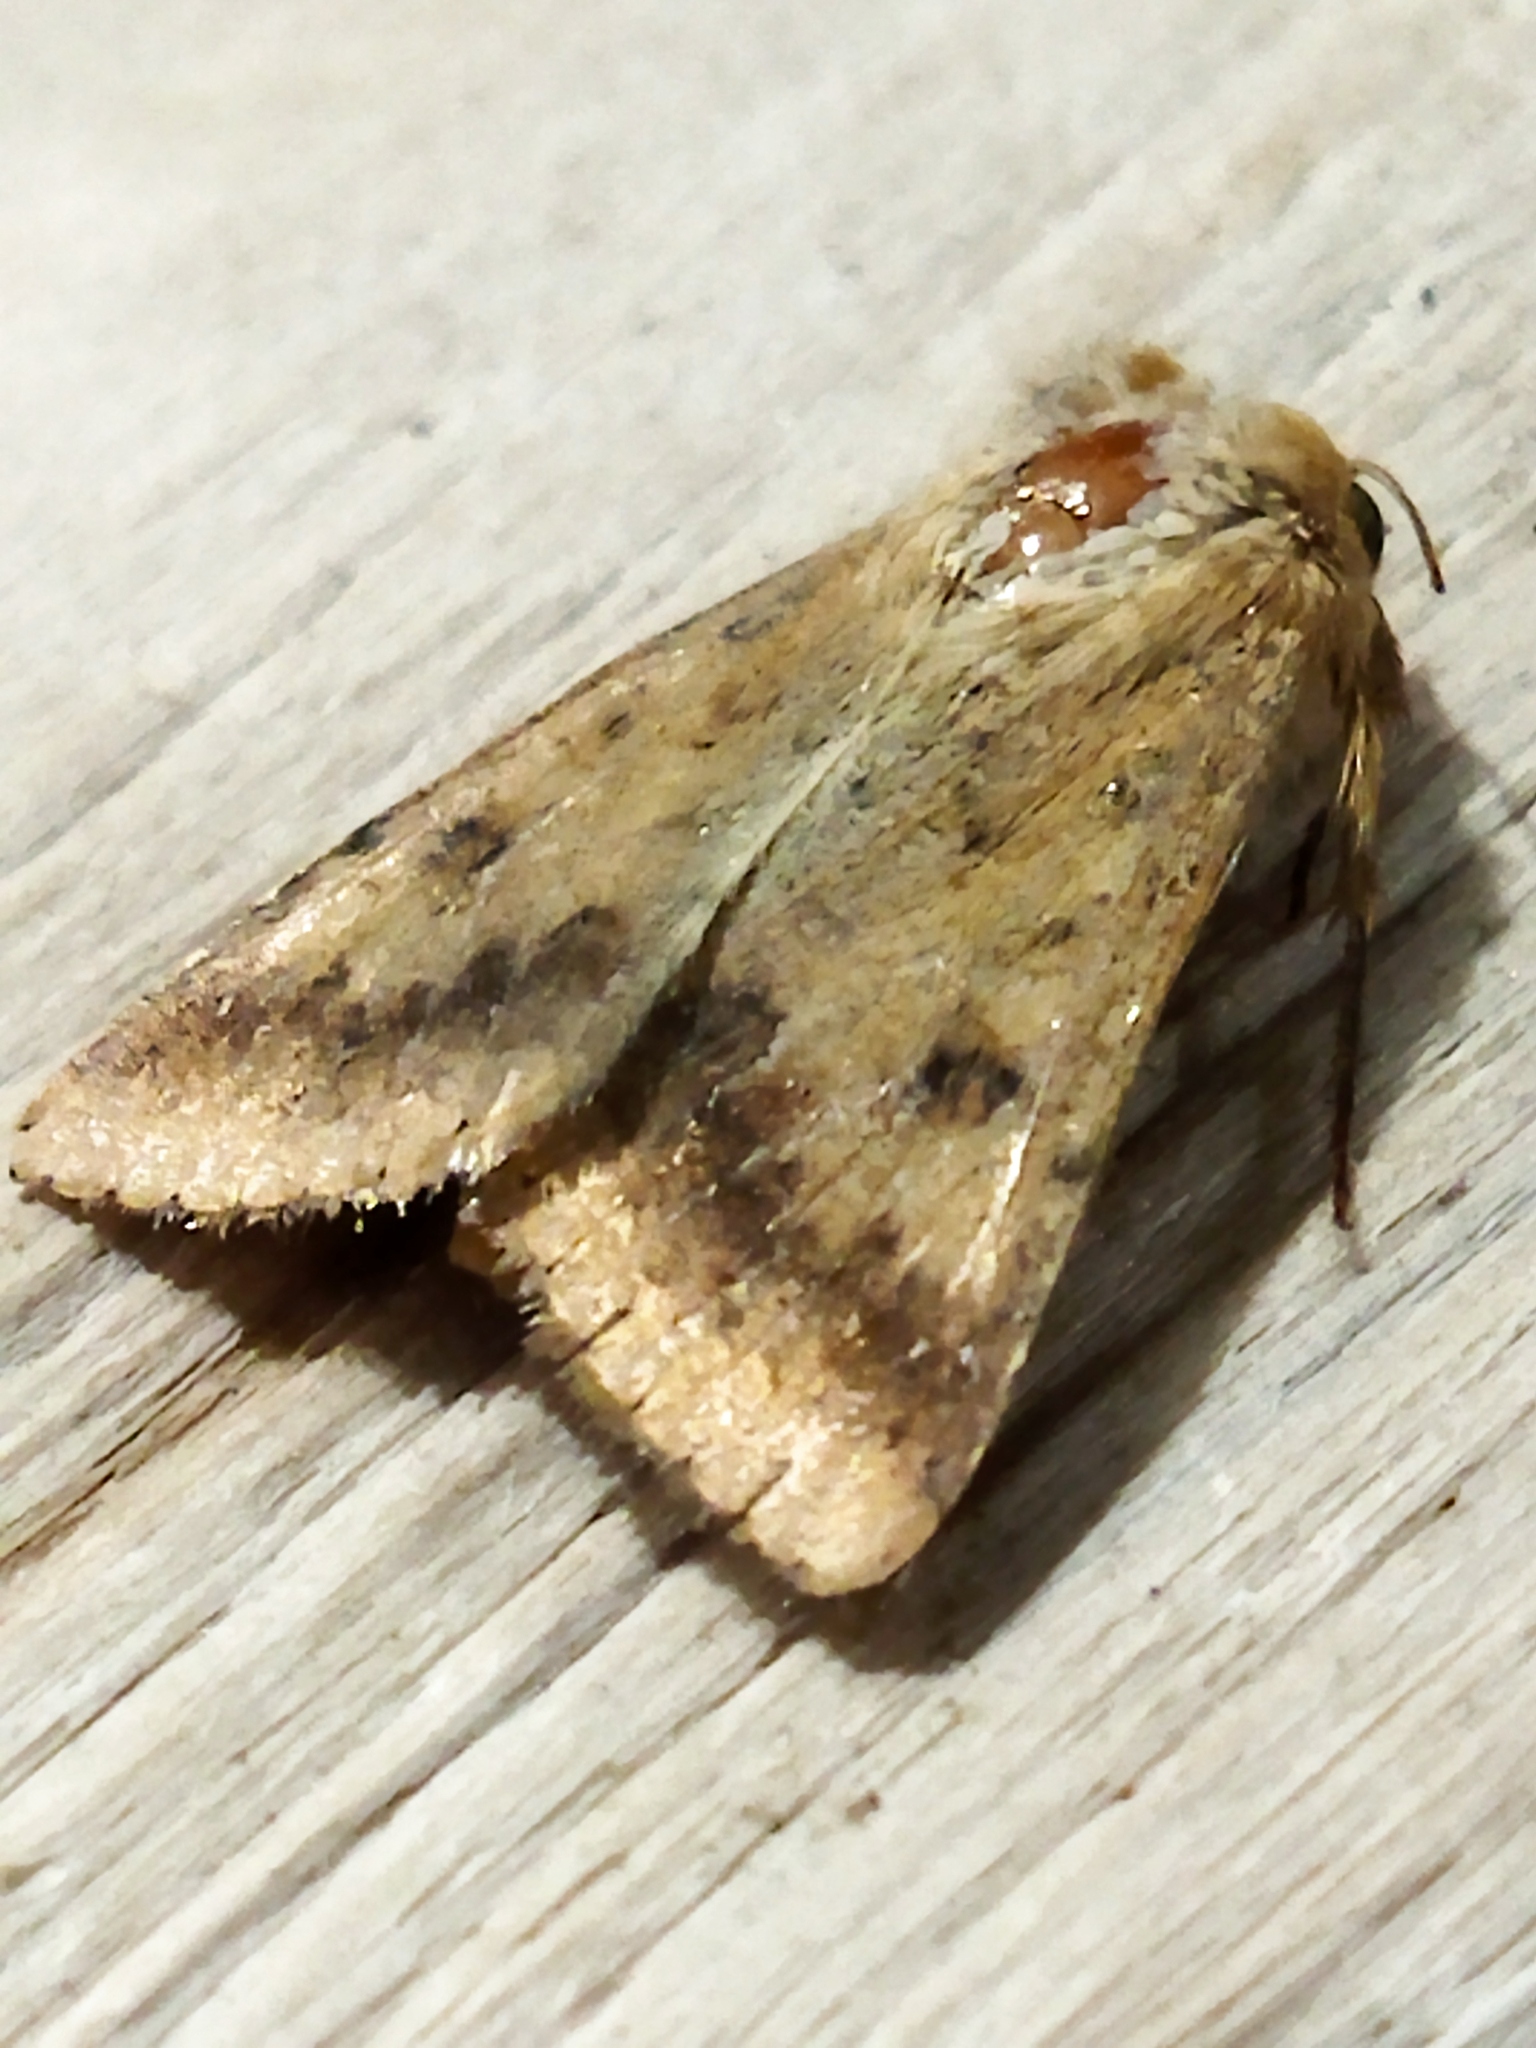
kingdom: Animalia
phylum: Arthropoda
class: Insecta
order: Lepidoptera
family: Noctuidae
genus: Helicoverpa
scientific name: Helicoverpa armigera
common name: Cotton bollworm
